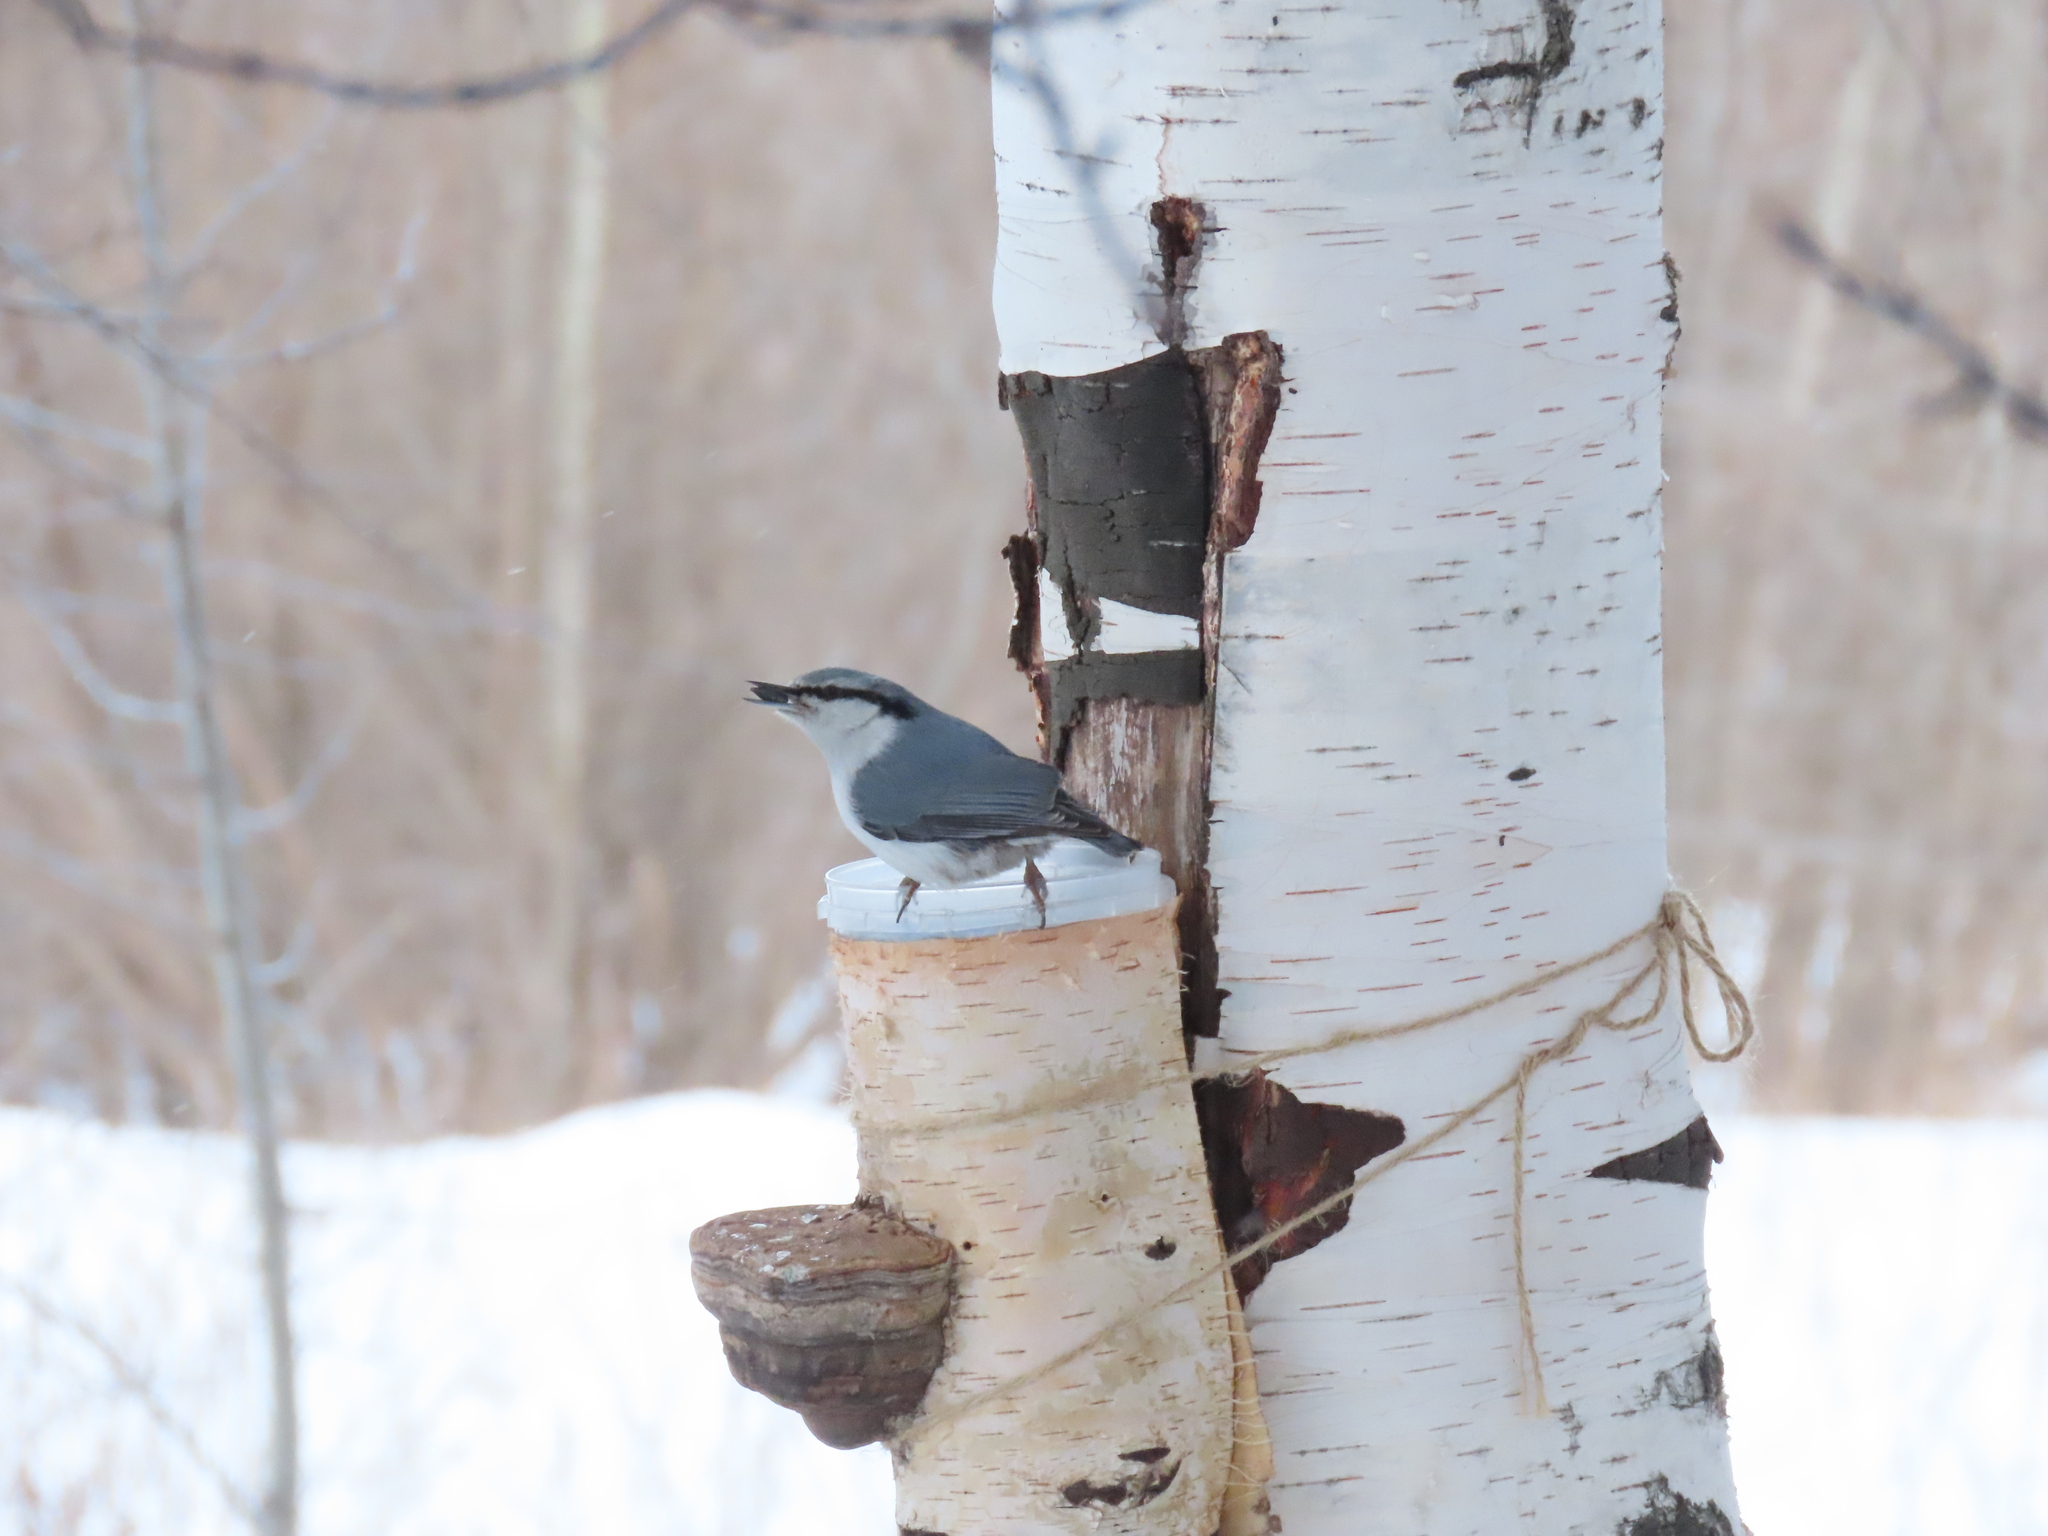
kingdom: Animalia
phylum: Chordata
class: Aves
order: Passeriformes
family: Sittidae
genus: Sitta
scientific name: Sitta europaea
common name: Eurasian nuthatch
